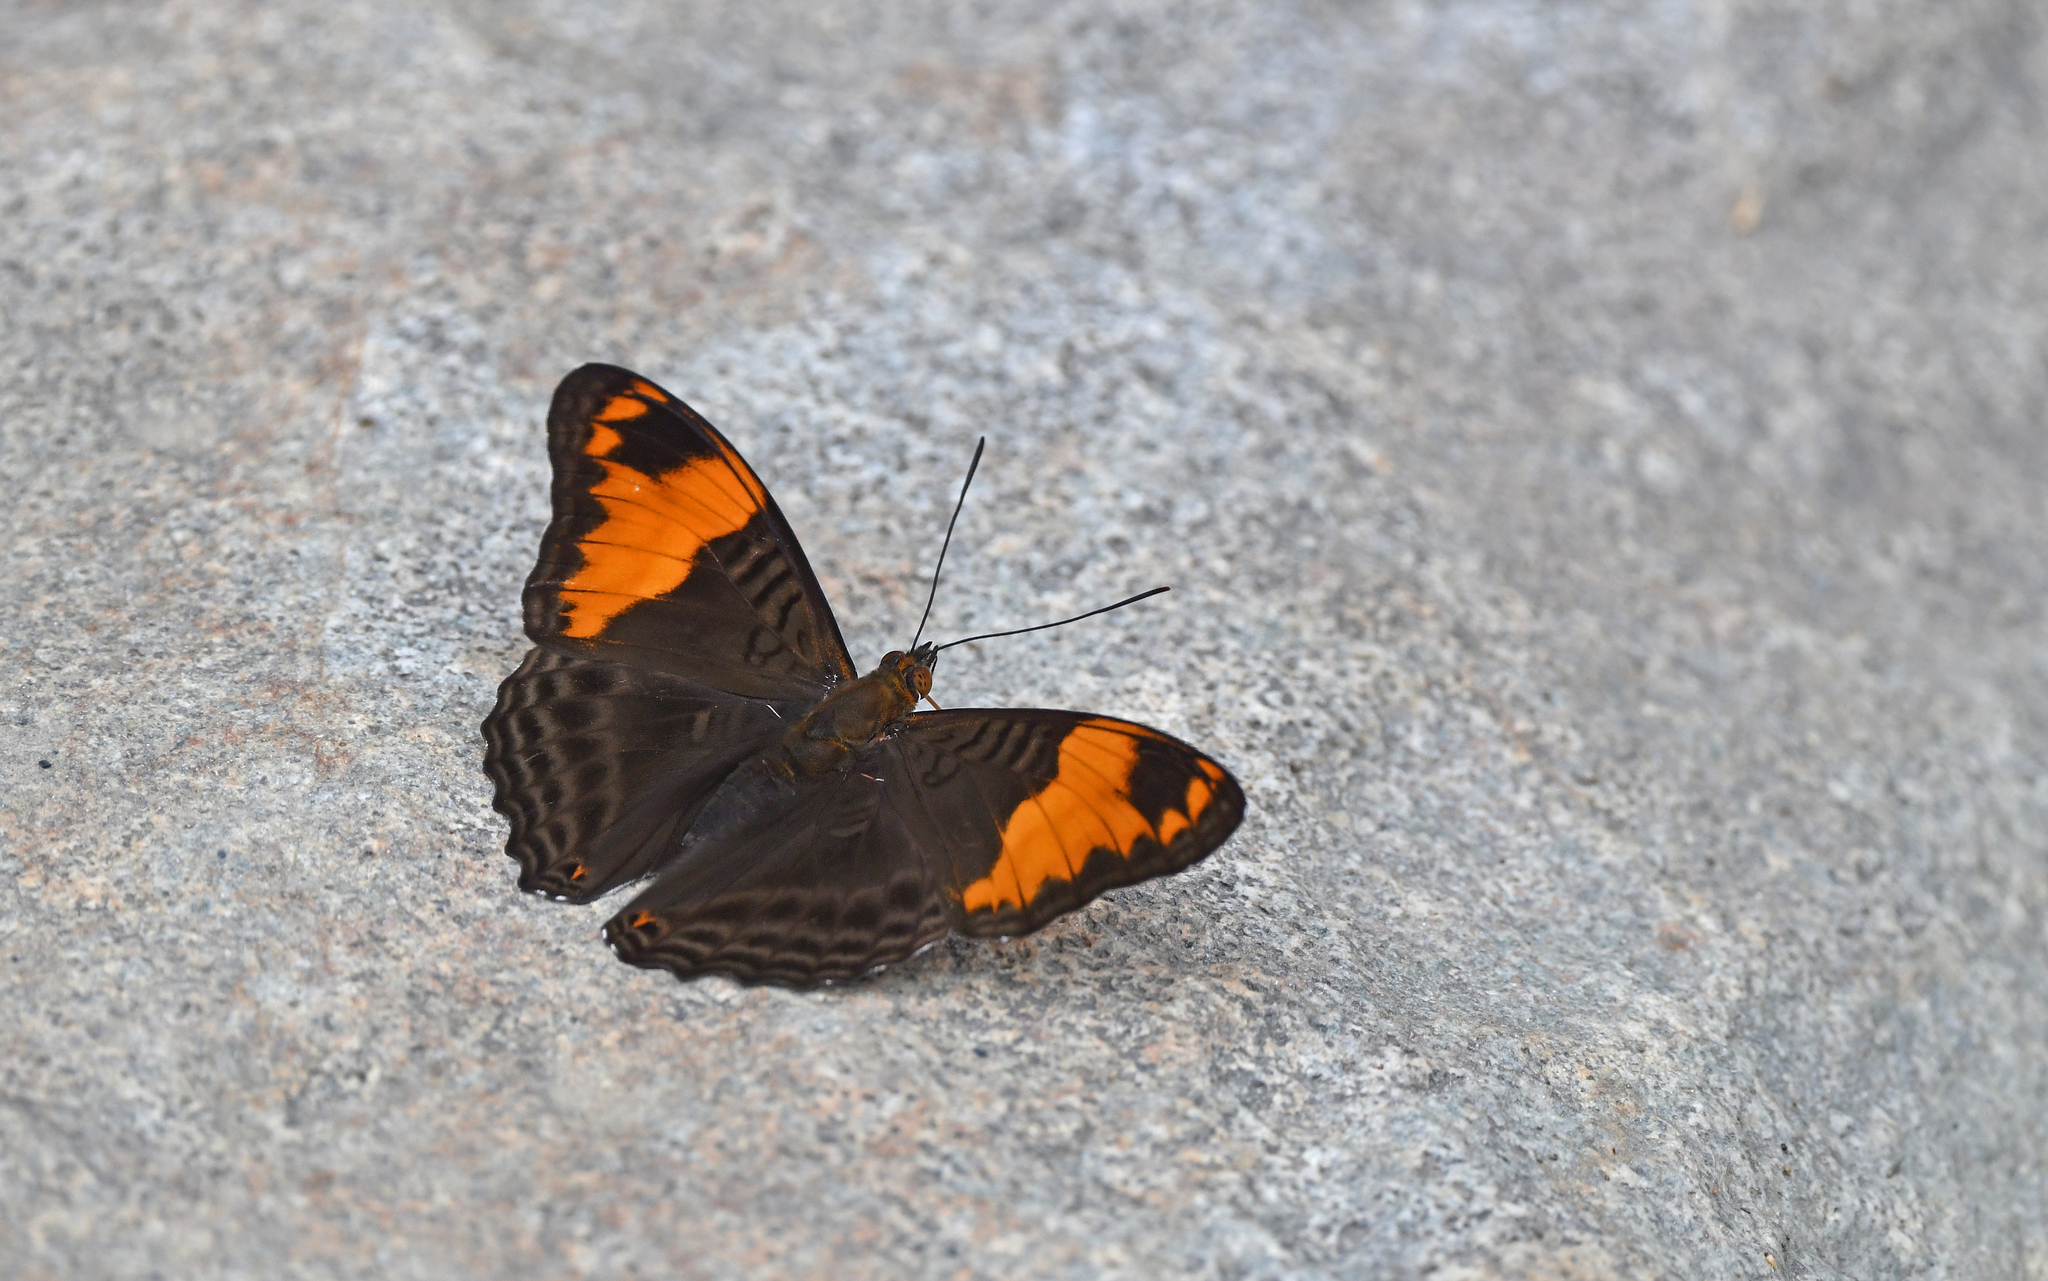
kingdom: Animalia
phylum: Arthropoda
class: Insecta
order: Lepidoptera
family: Nymphalidae
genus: Limenitis
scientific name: Limenitis ximena
